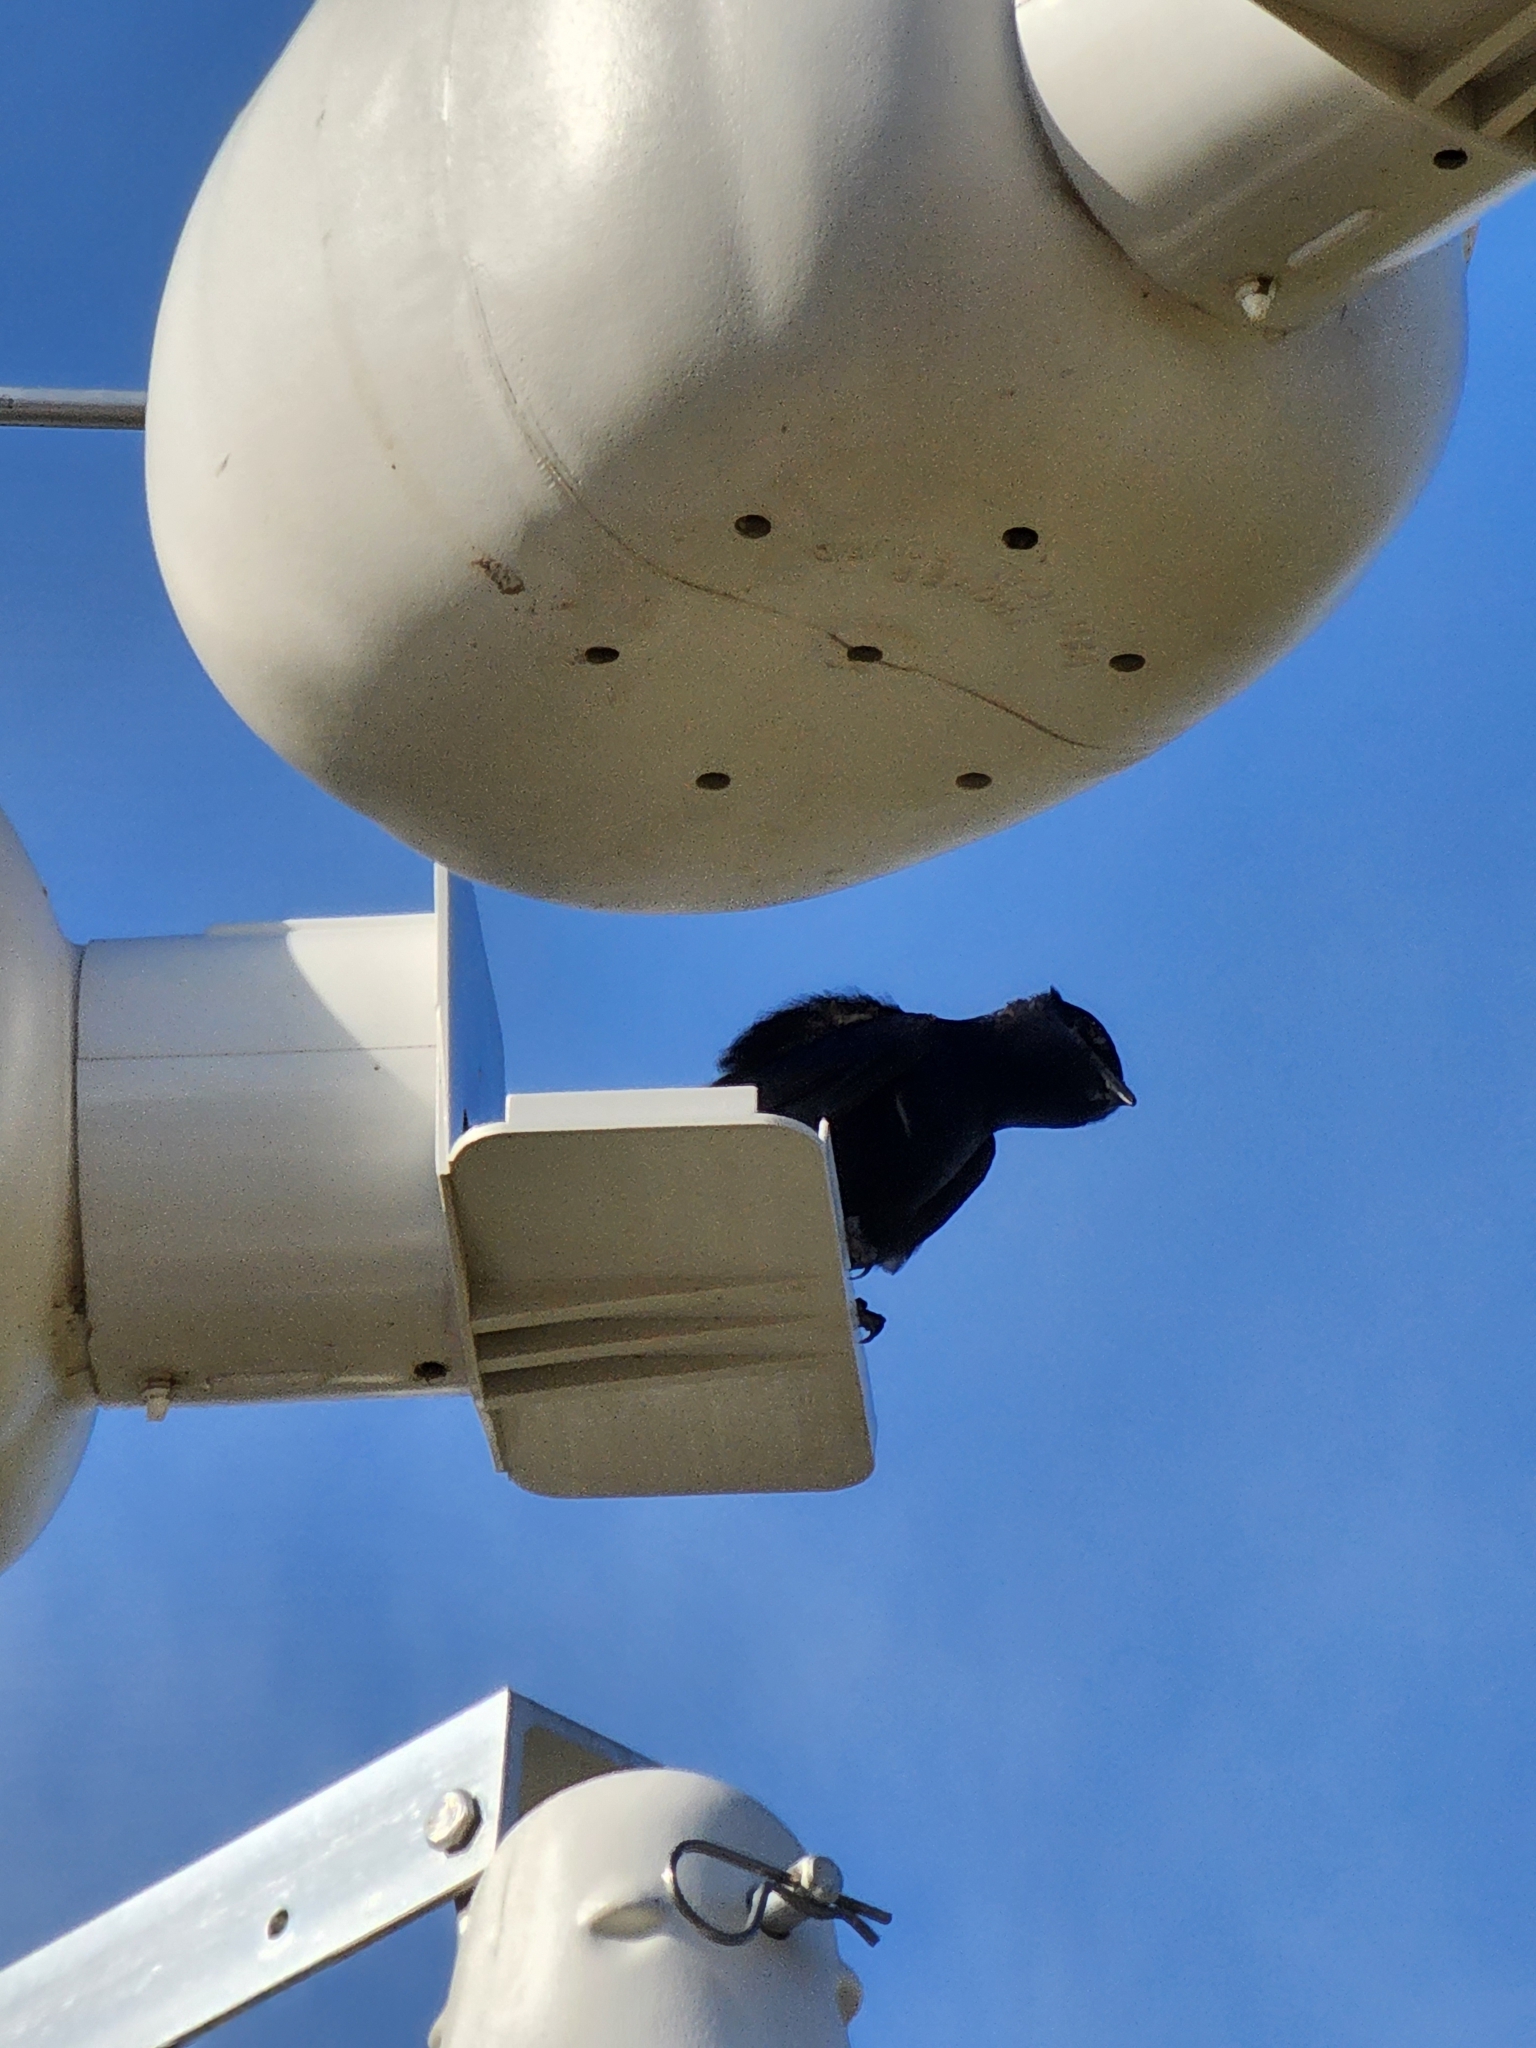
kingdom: Animalia
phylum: Chordata
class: Aves
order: Passeriformes
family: Hirundinidae
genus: Progne
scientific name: Progne subis
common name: Purple martin
